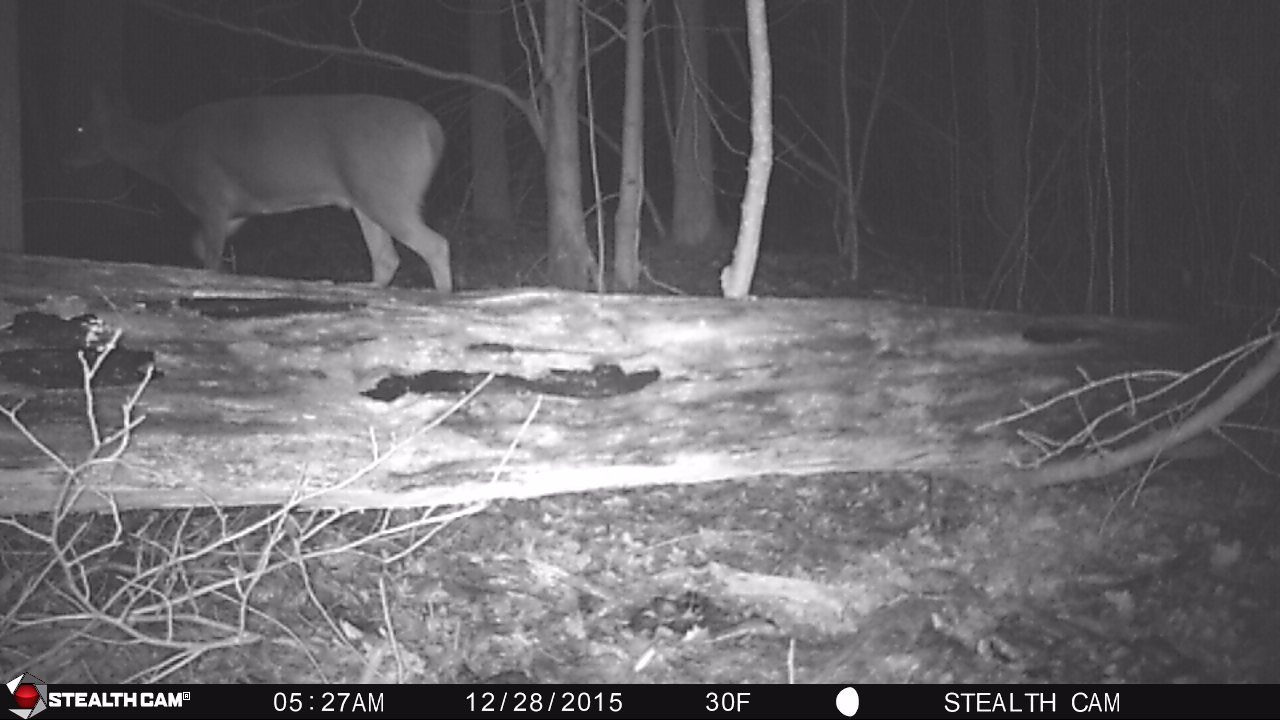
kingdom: Animalia
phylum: Chordata
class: Mammalia
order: Artiodactyla
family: Cervidae
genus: Odocoileus
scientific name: Odocoileus virginianus
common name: White-tailed deer
